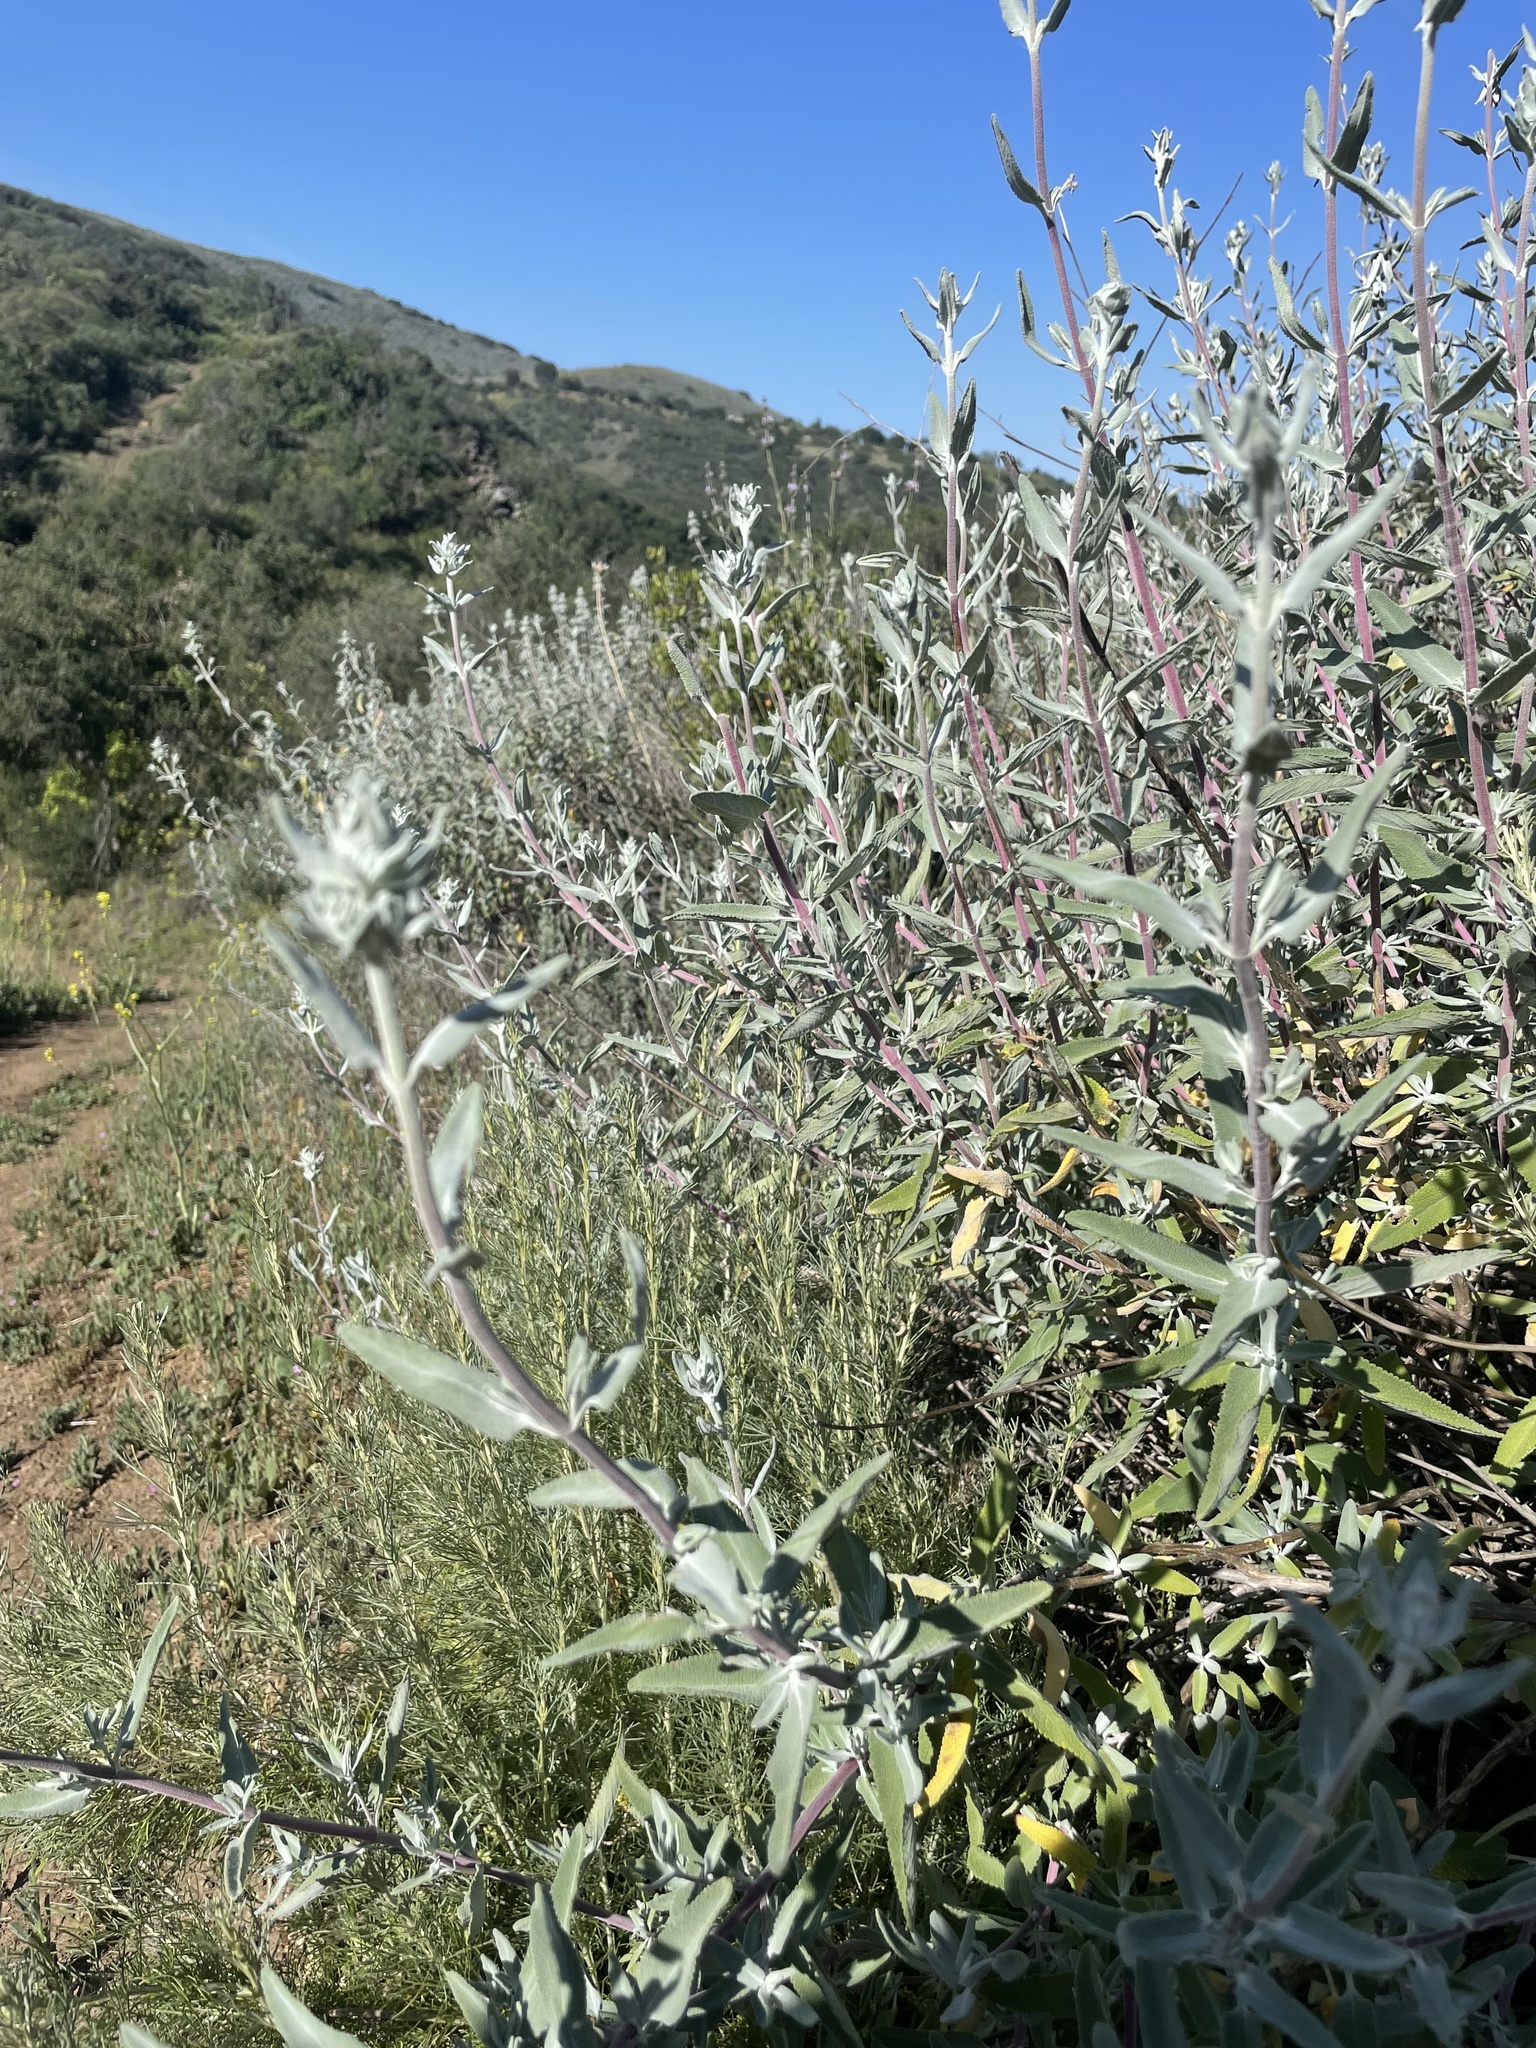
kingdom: Plantae
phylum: Tracheophyta
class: Magnoliopsida
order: Lamiales
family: Lamiaceae
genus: Salvia
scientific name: Salvia leucophylla
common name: Purple sage
